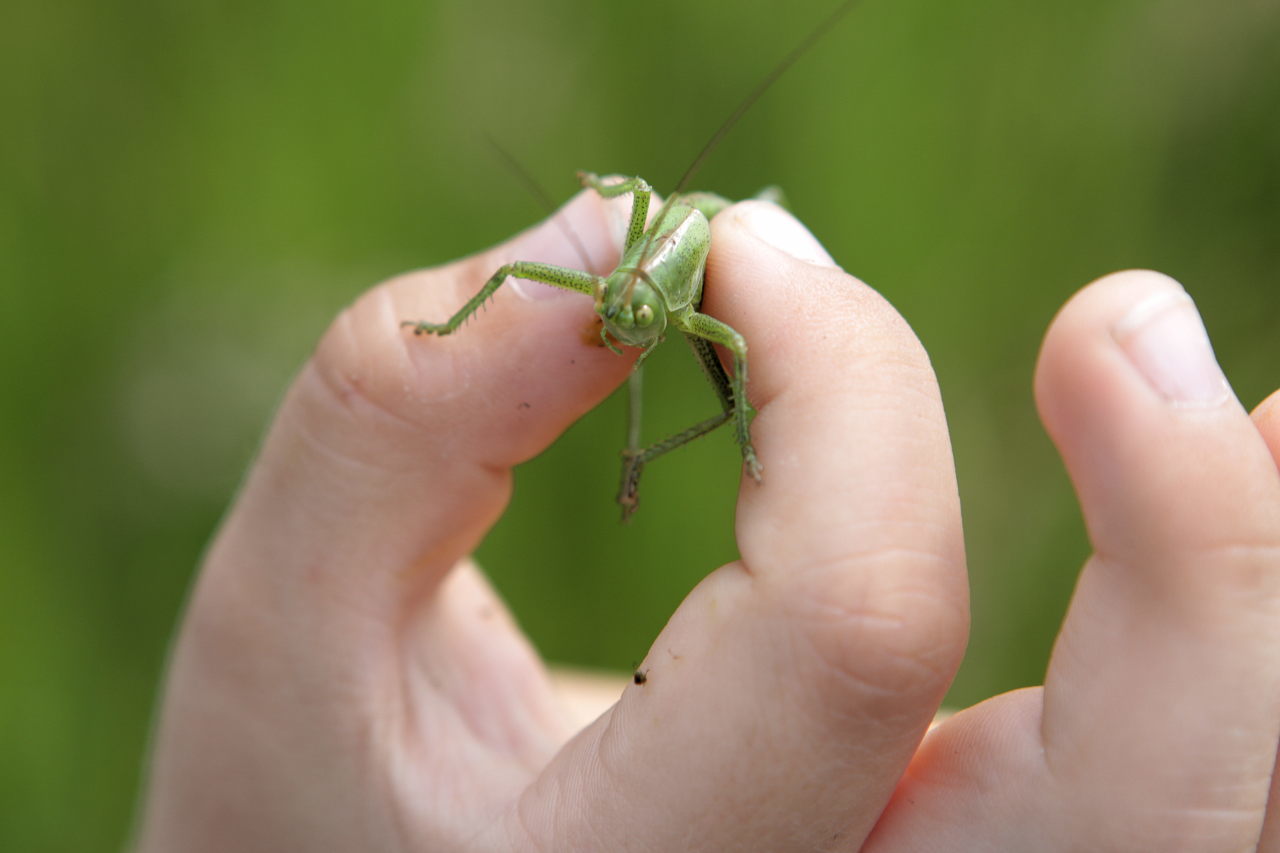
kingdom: Animalia
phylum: Arthropoda
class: Insecta
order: Orthoptera
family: Tettigoniidae
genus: Tettigonia
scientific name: Tettigonia viridissima
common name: Great green bush-cricket
